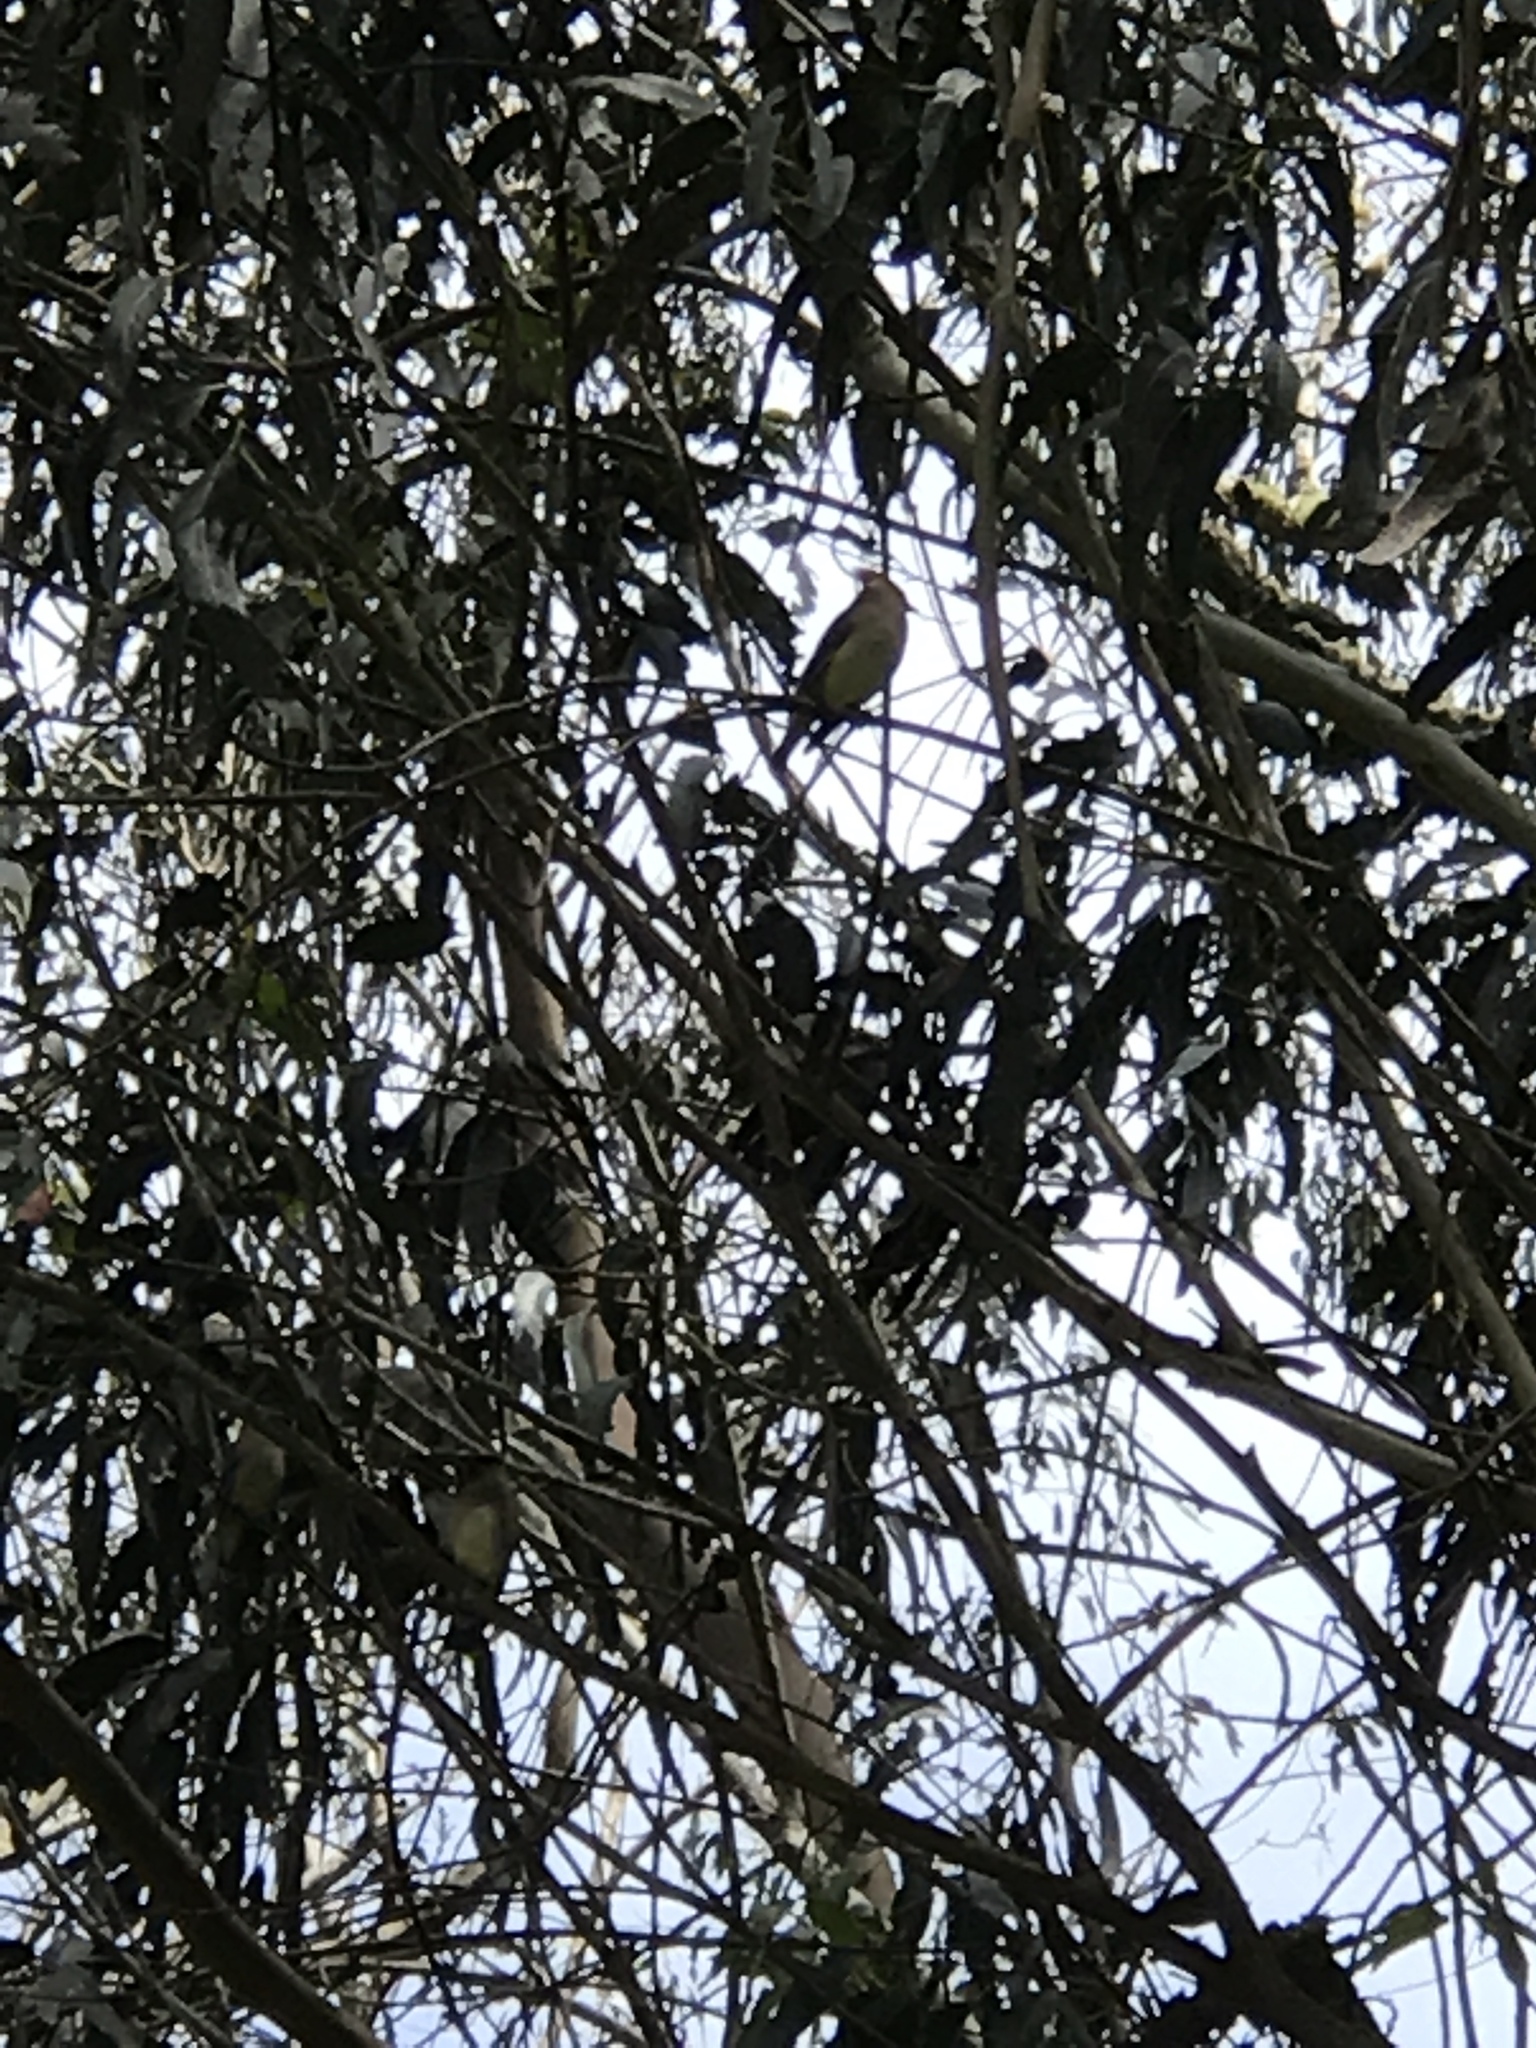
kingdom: Animalia
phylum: Chordata
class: Aves
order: Passeriformes
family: Bombycillidae
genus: Bombycilla
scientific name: Bombycilla cedrorum
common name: Cedar waxwing
